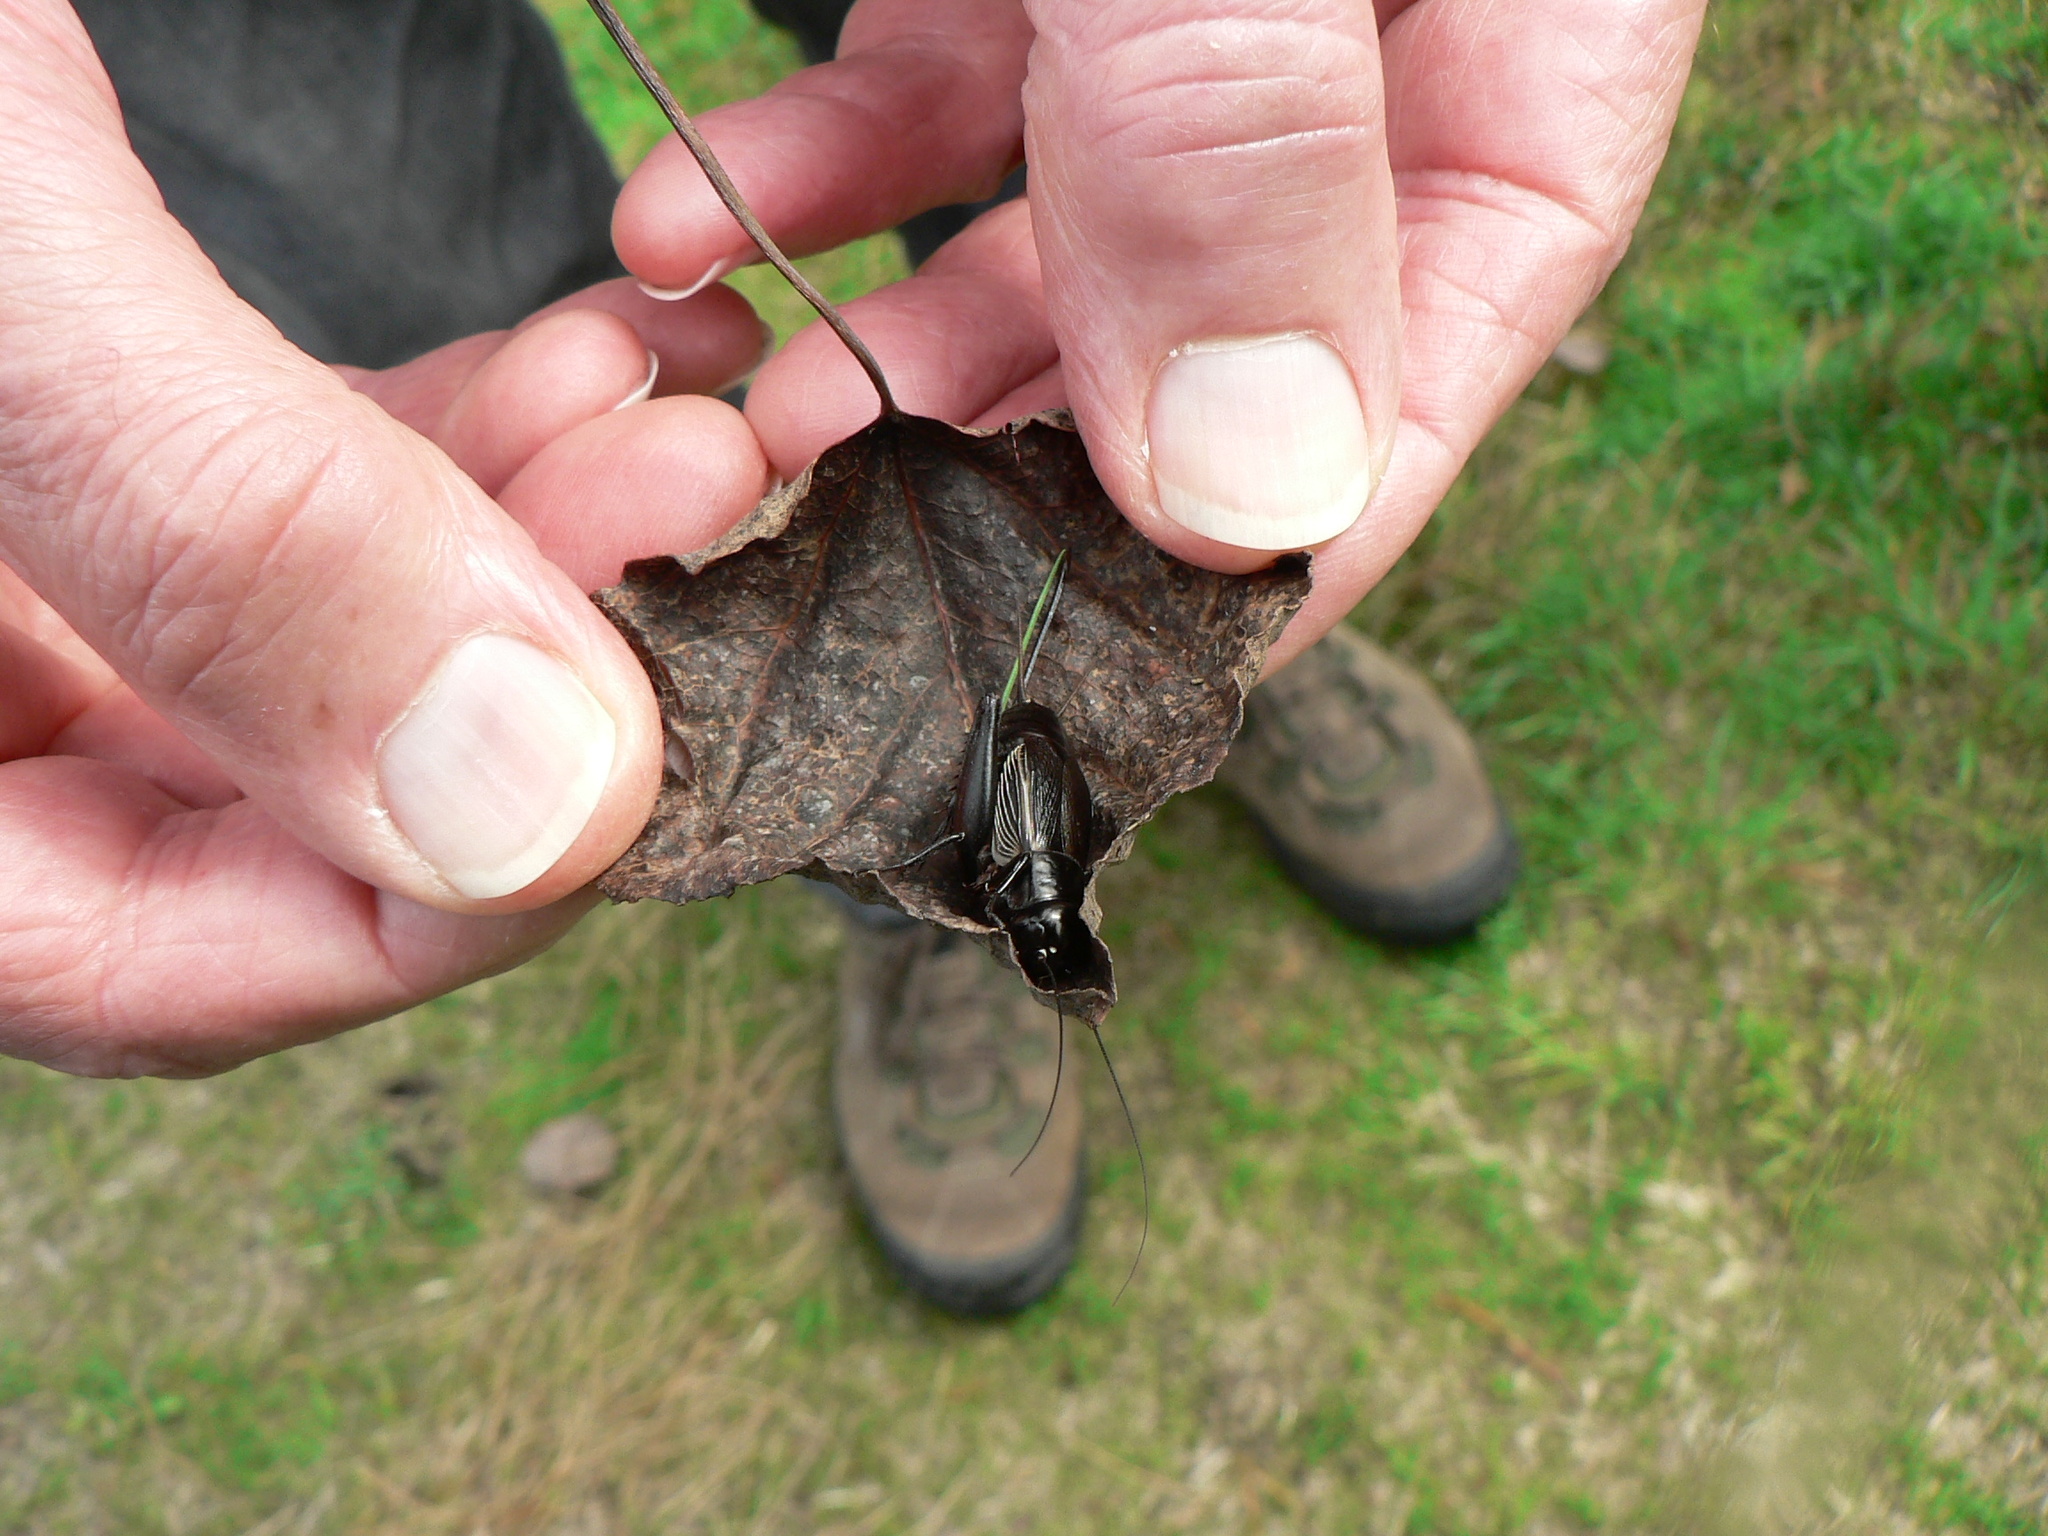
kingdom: Animalia
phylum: Arthropoda
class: Insecta
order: Orthoptera
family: Gryllidae
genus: Gryllus
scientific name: Gryllus pennsylvanicus
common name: Fall field cricket
